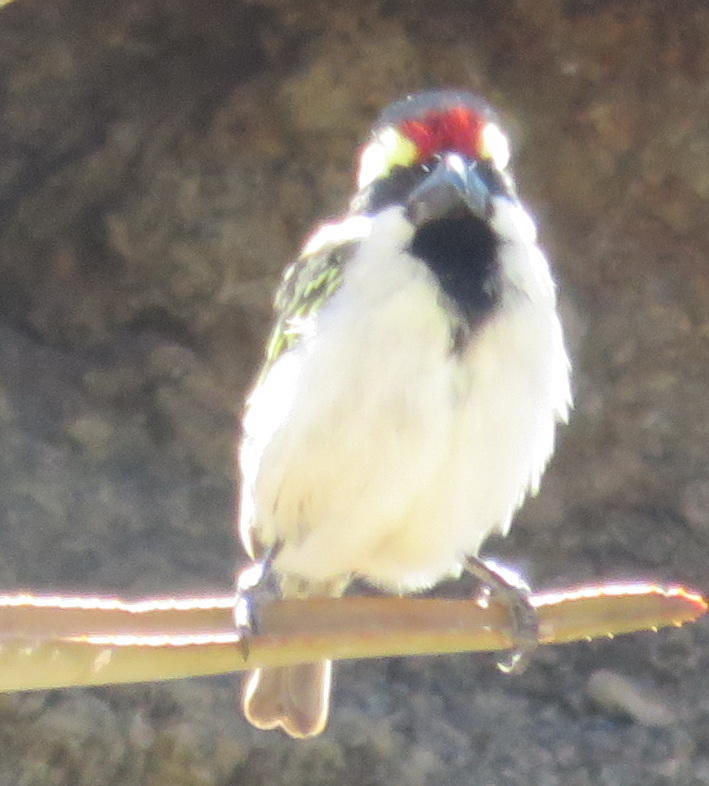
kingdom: Animalia
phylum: Chordata
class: Aves
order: Piciformes
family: Lybiidae
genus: Tricholaema
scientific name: Tricholaema leucomelas
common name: Acacia pied barbet
